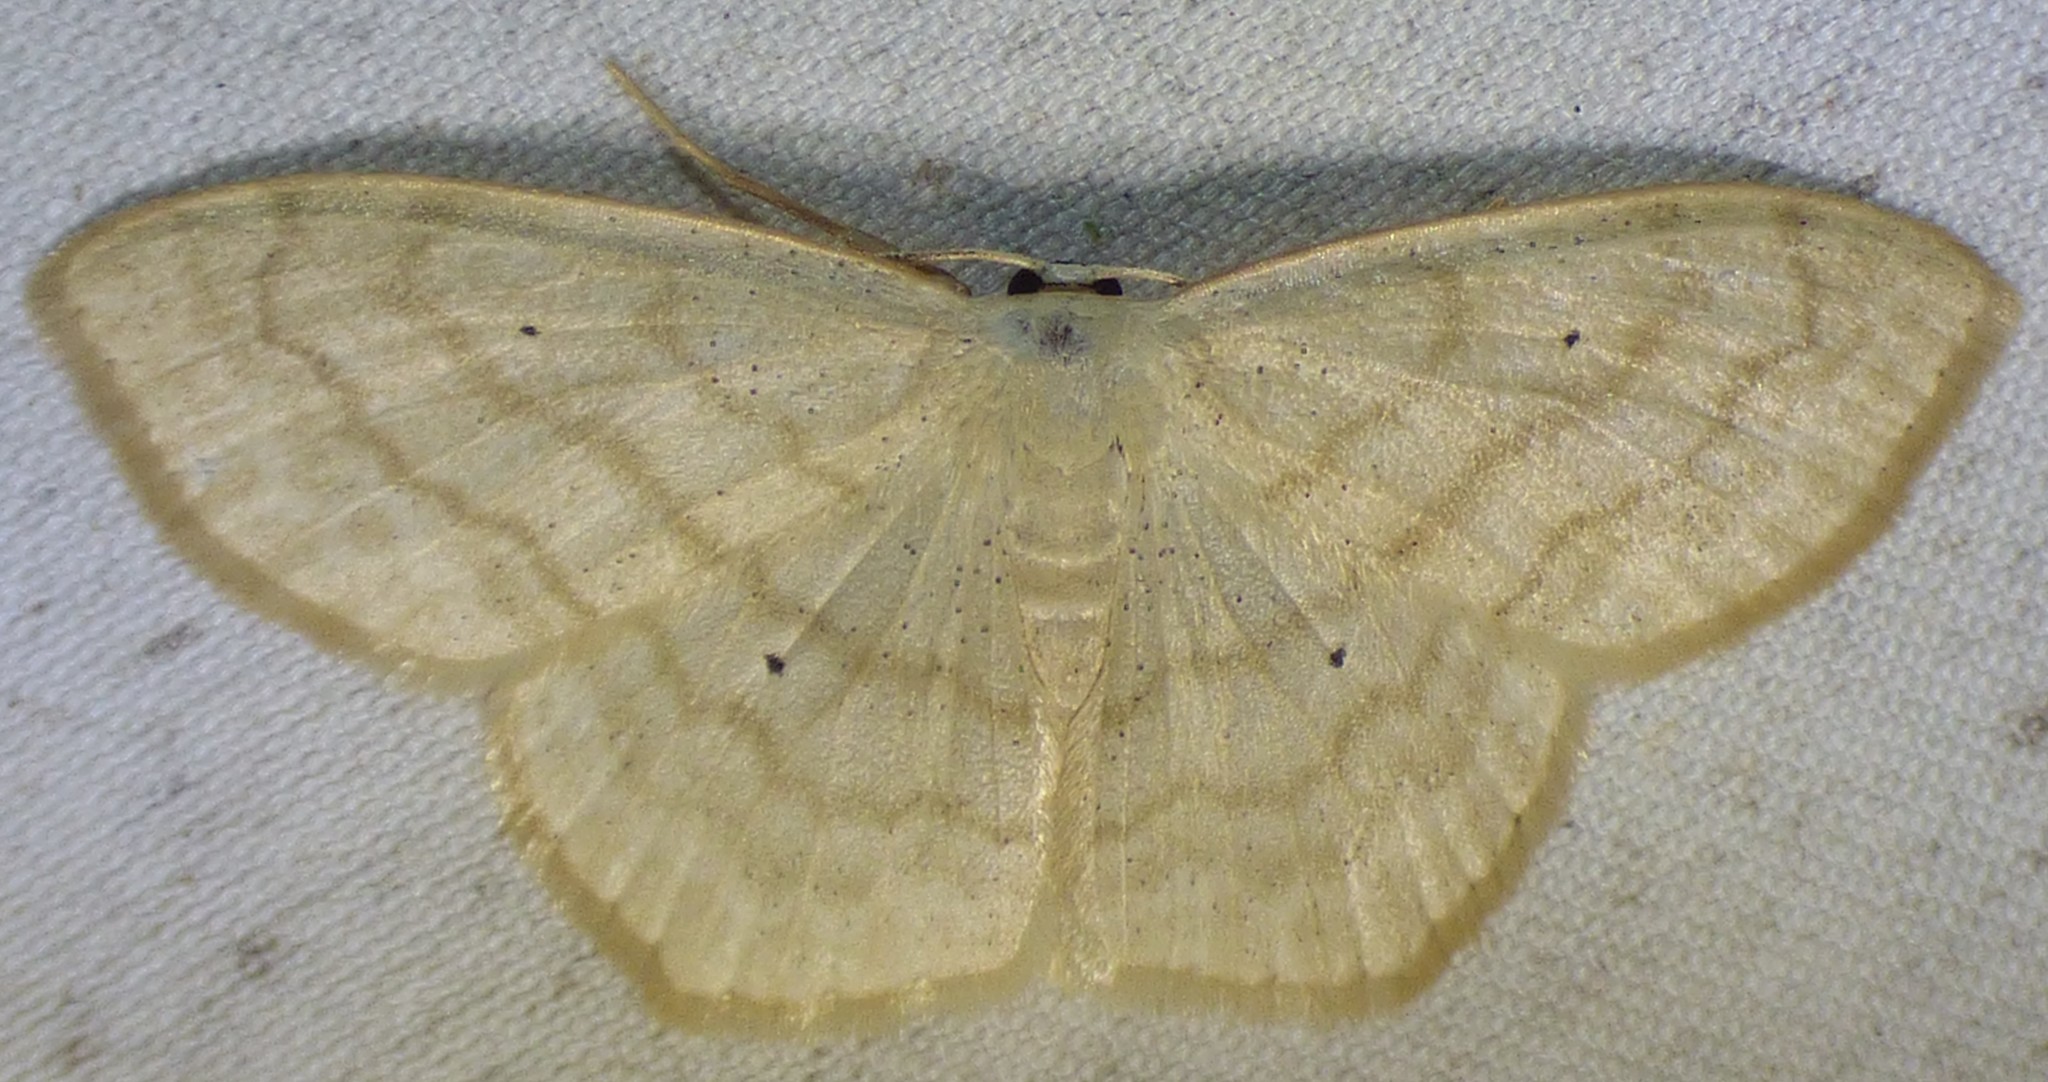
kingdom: Animalia
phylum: Arthropoda
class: Insecta
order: Lepidoptera
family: Geometridae
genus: Scopula
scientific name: Scopula limboundata
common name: Large lace border
